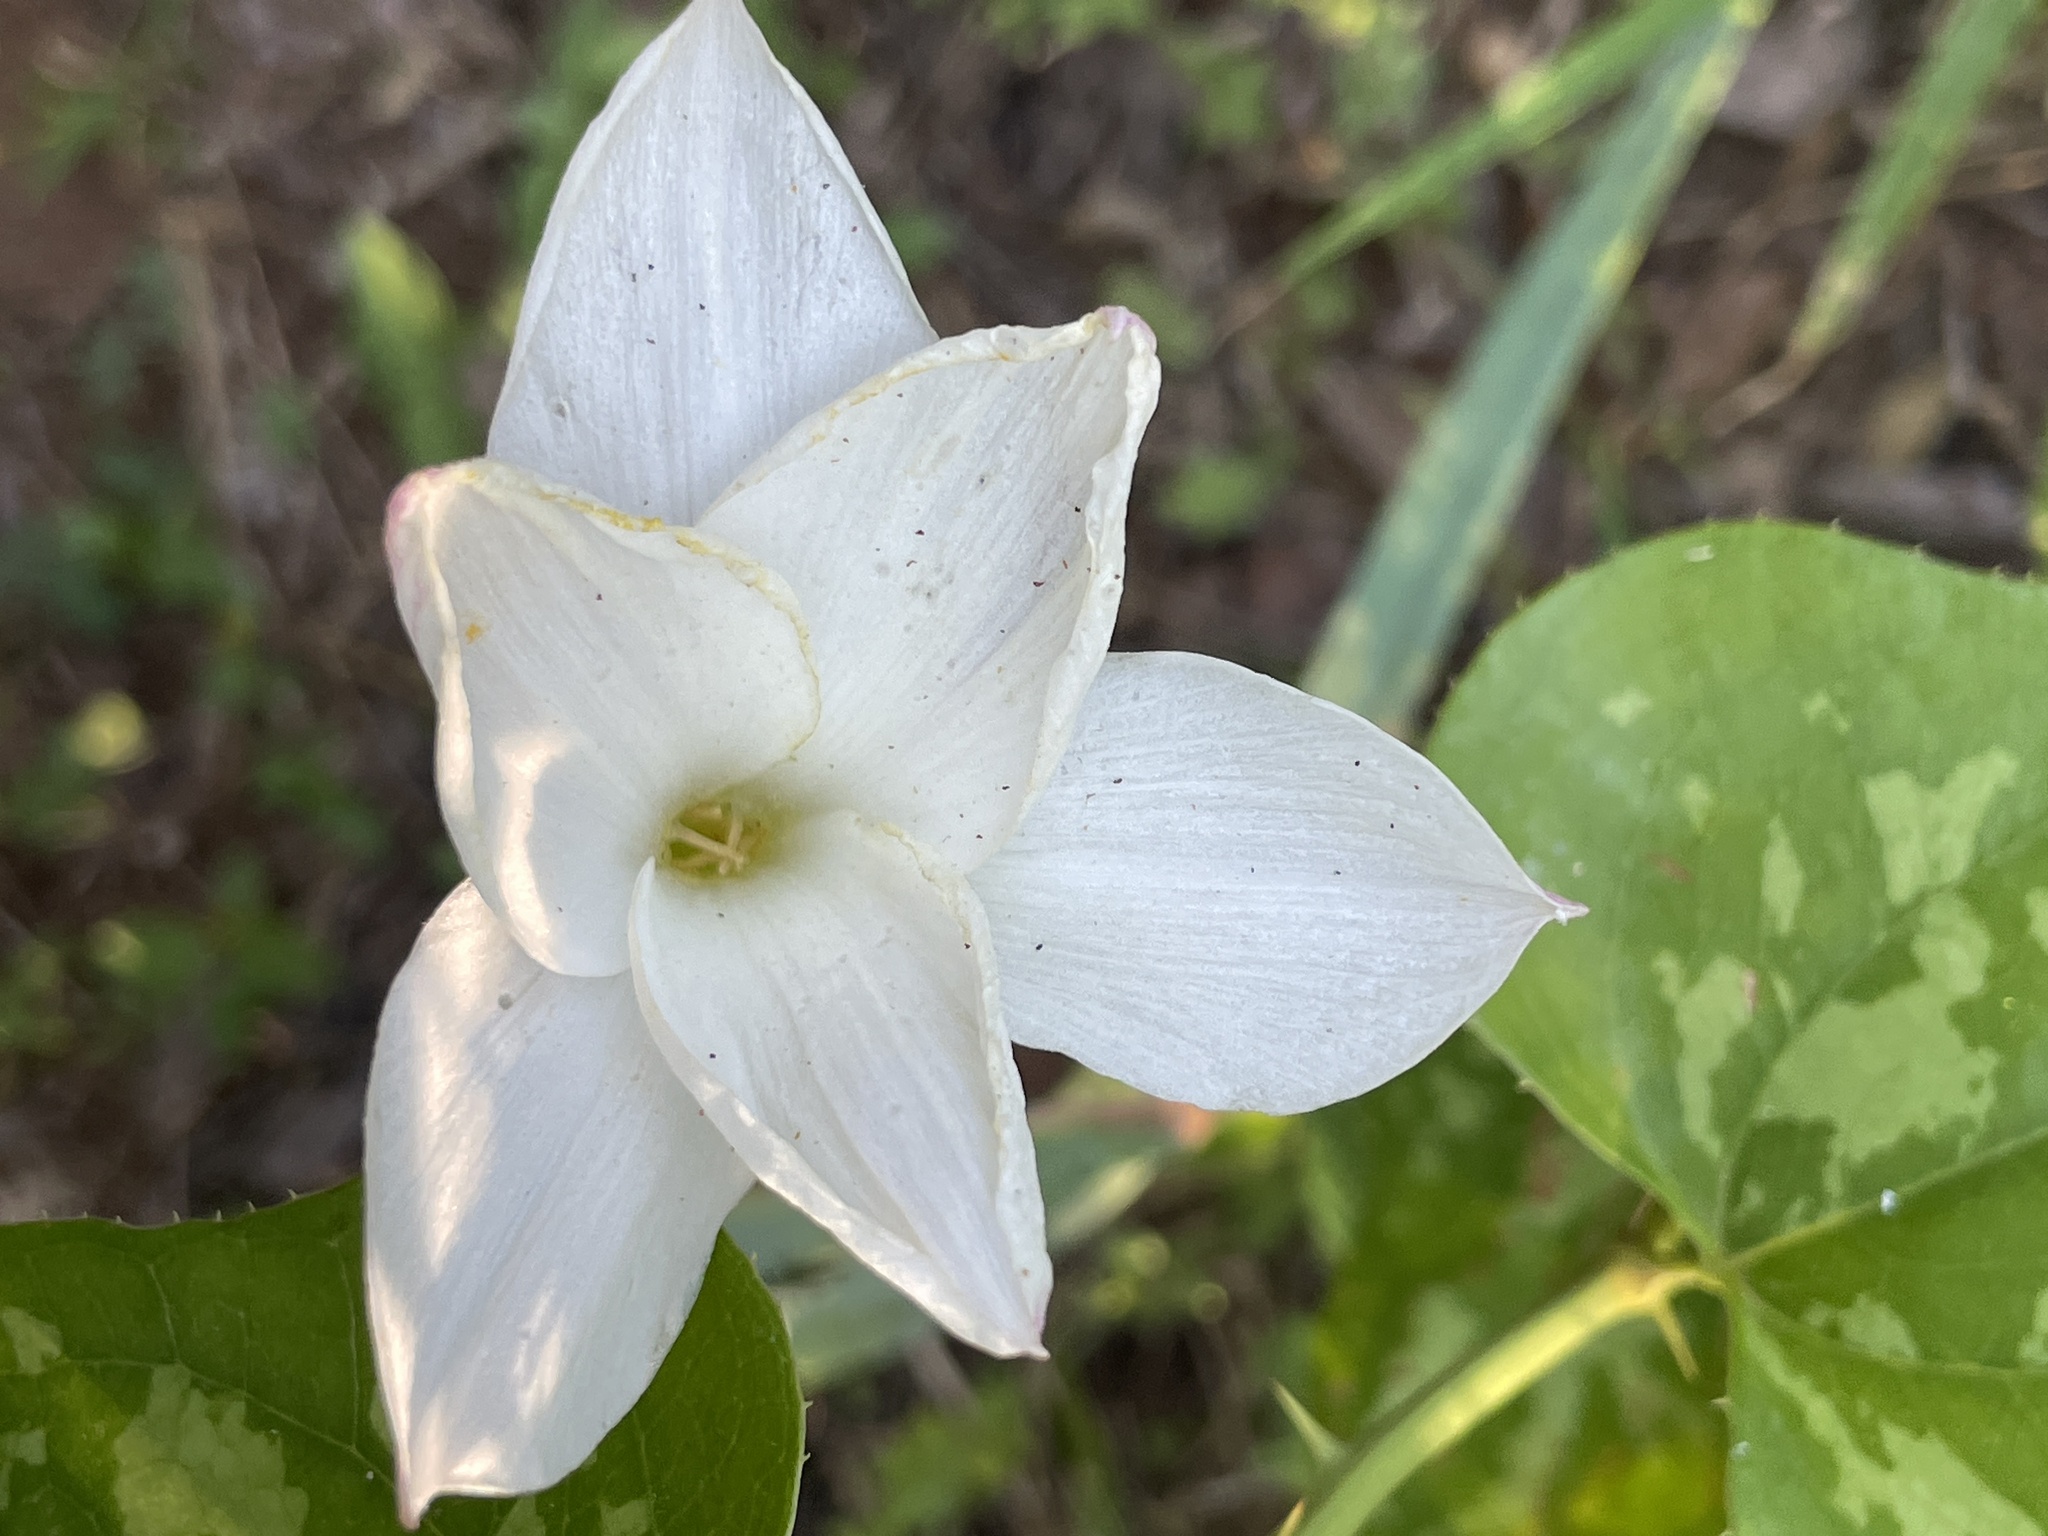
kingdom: Plantae
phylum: Tracheophyta
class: Liliopsida
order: Asparagales
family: Amaryllidaceae
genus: Zephyranthes
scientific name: Zephyranthes drummondii
